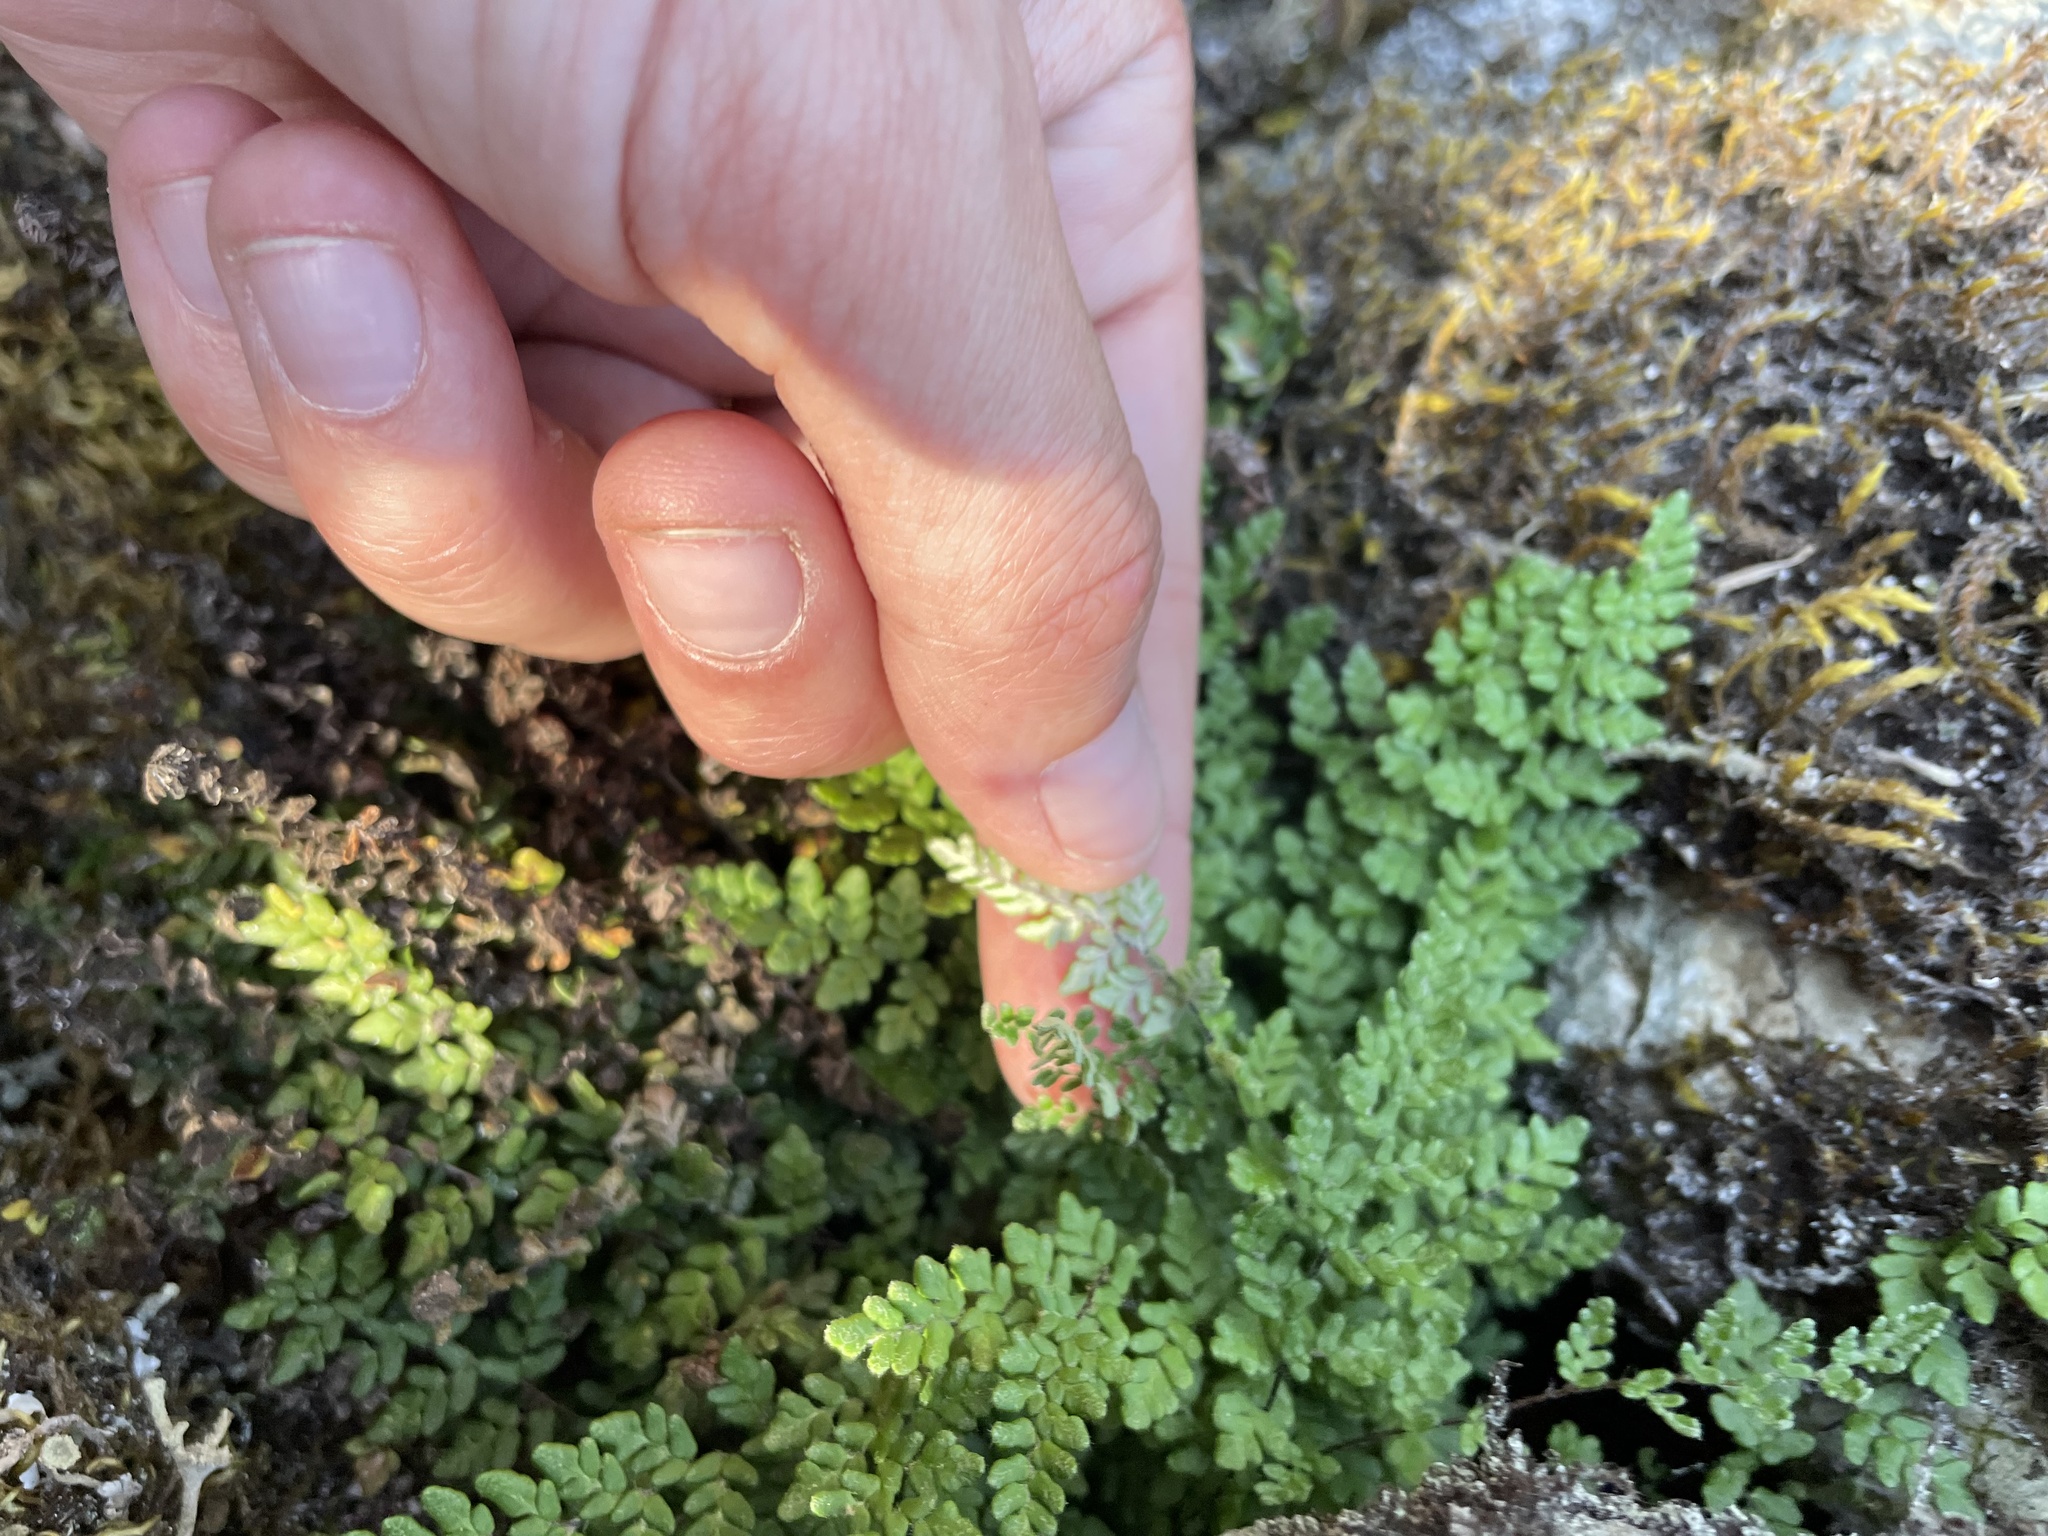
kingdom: Plantae
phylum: Tracheophyta
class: Polypodiopsida
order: Polypodiales
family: Pteridaceae
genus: Myriopteris
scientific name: Myriopteris gracillima
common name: Lace fern
